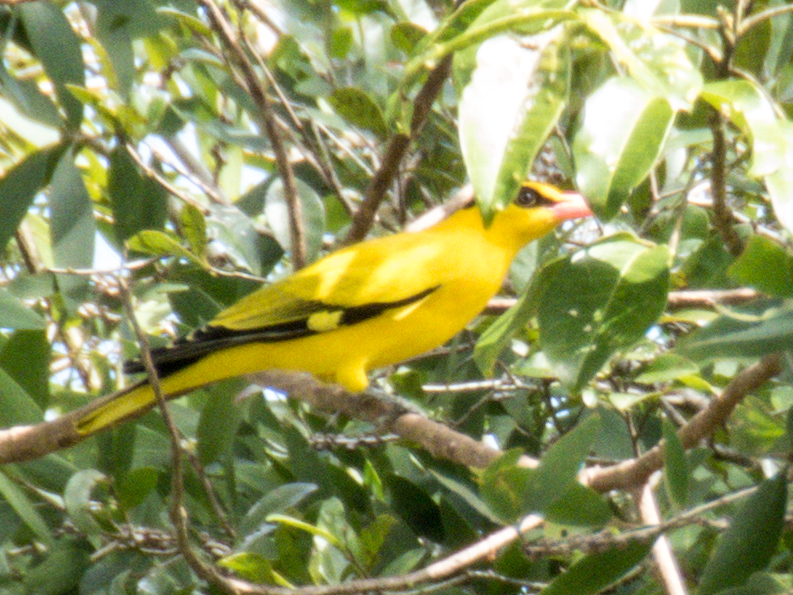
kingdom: Animalia
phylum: Chordata
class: Aves
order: Passeriformes
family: Oriolidae
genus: Oriolus
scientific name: Oriolus chinensis
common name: Black-naped oriole
